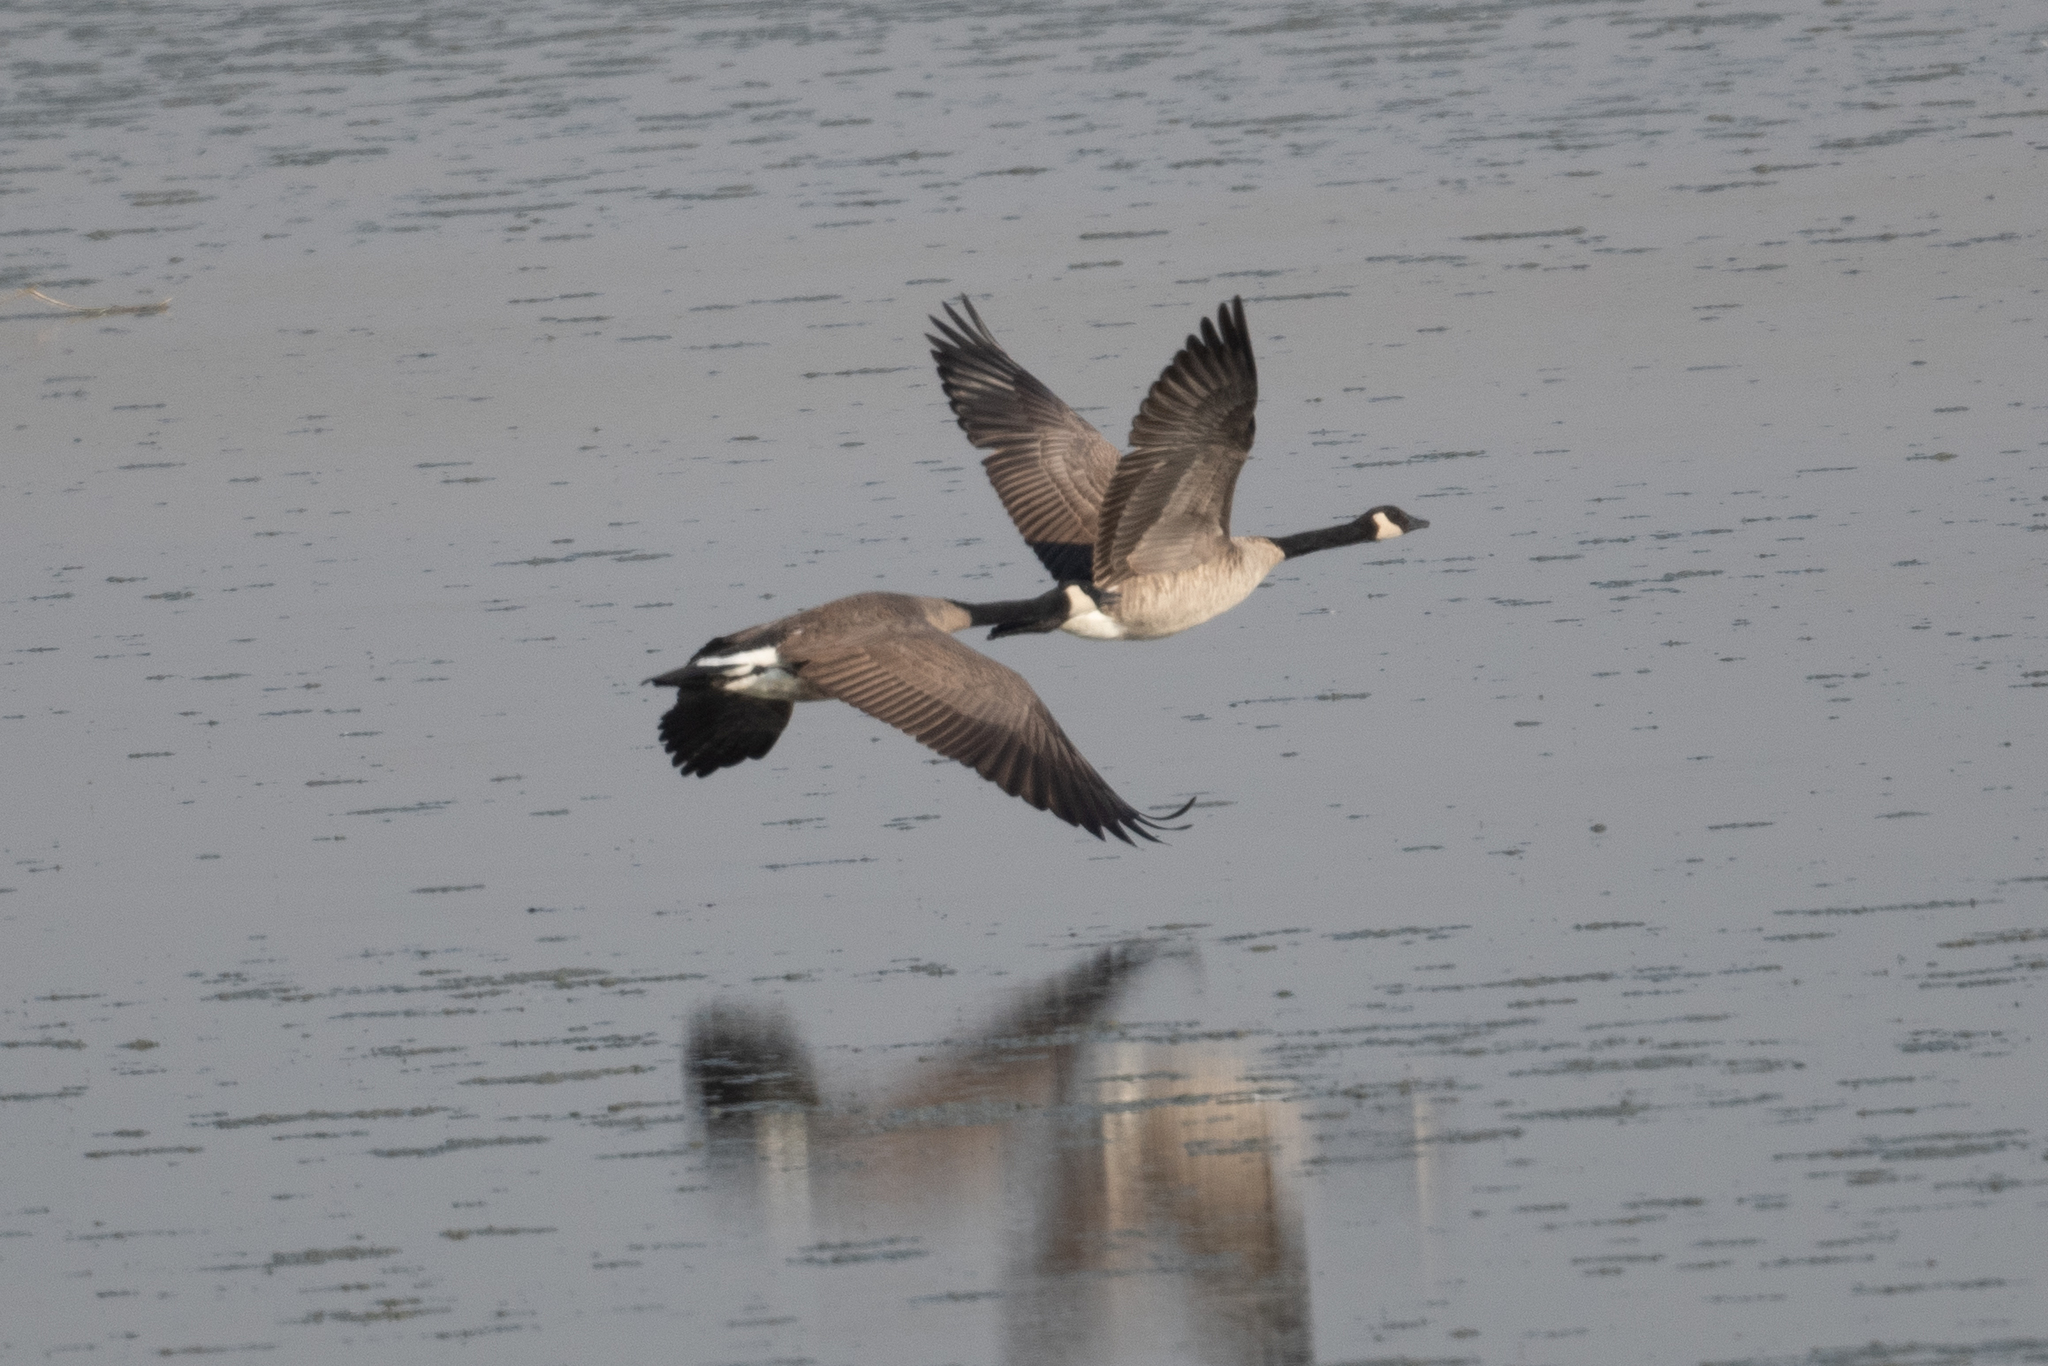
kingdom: Animalia
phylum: Chordata
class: Aves
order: Anseriformes
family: Anatidae
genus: Branta
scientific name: Branta canadensis
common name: Canada goose
